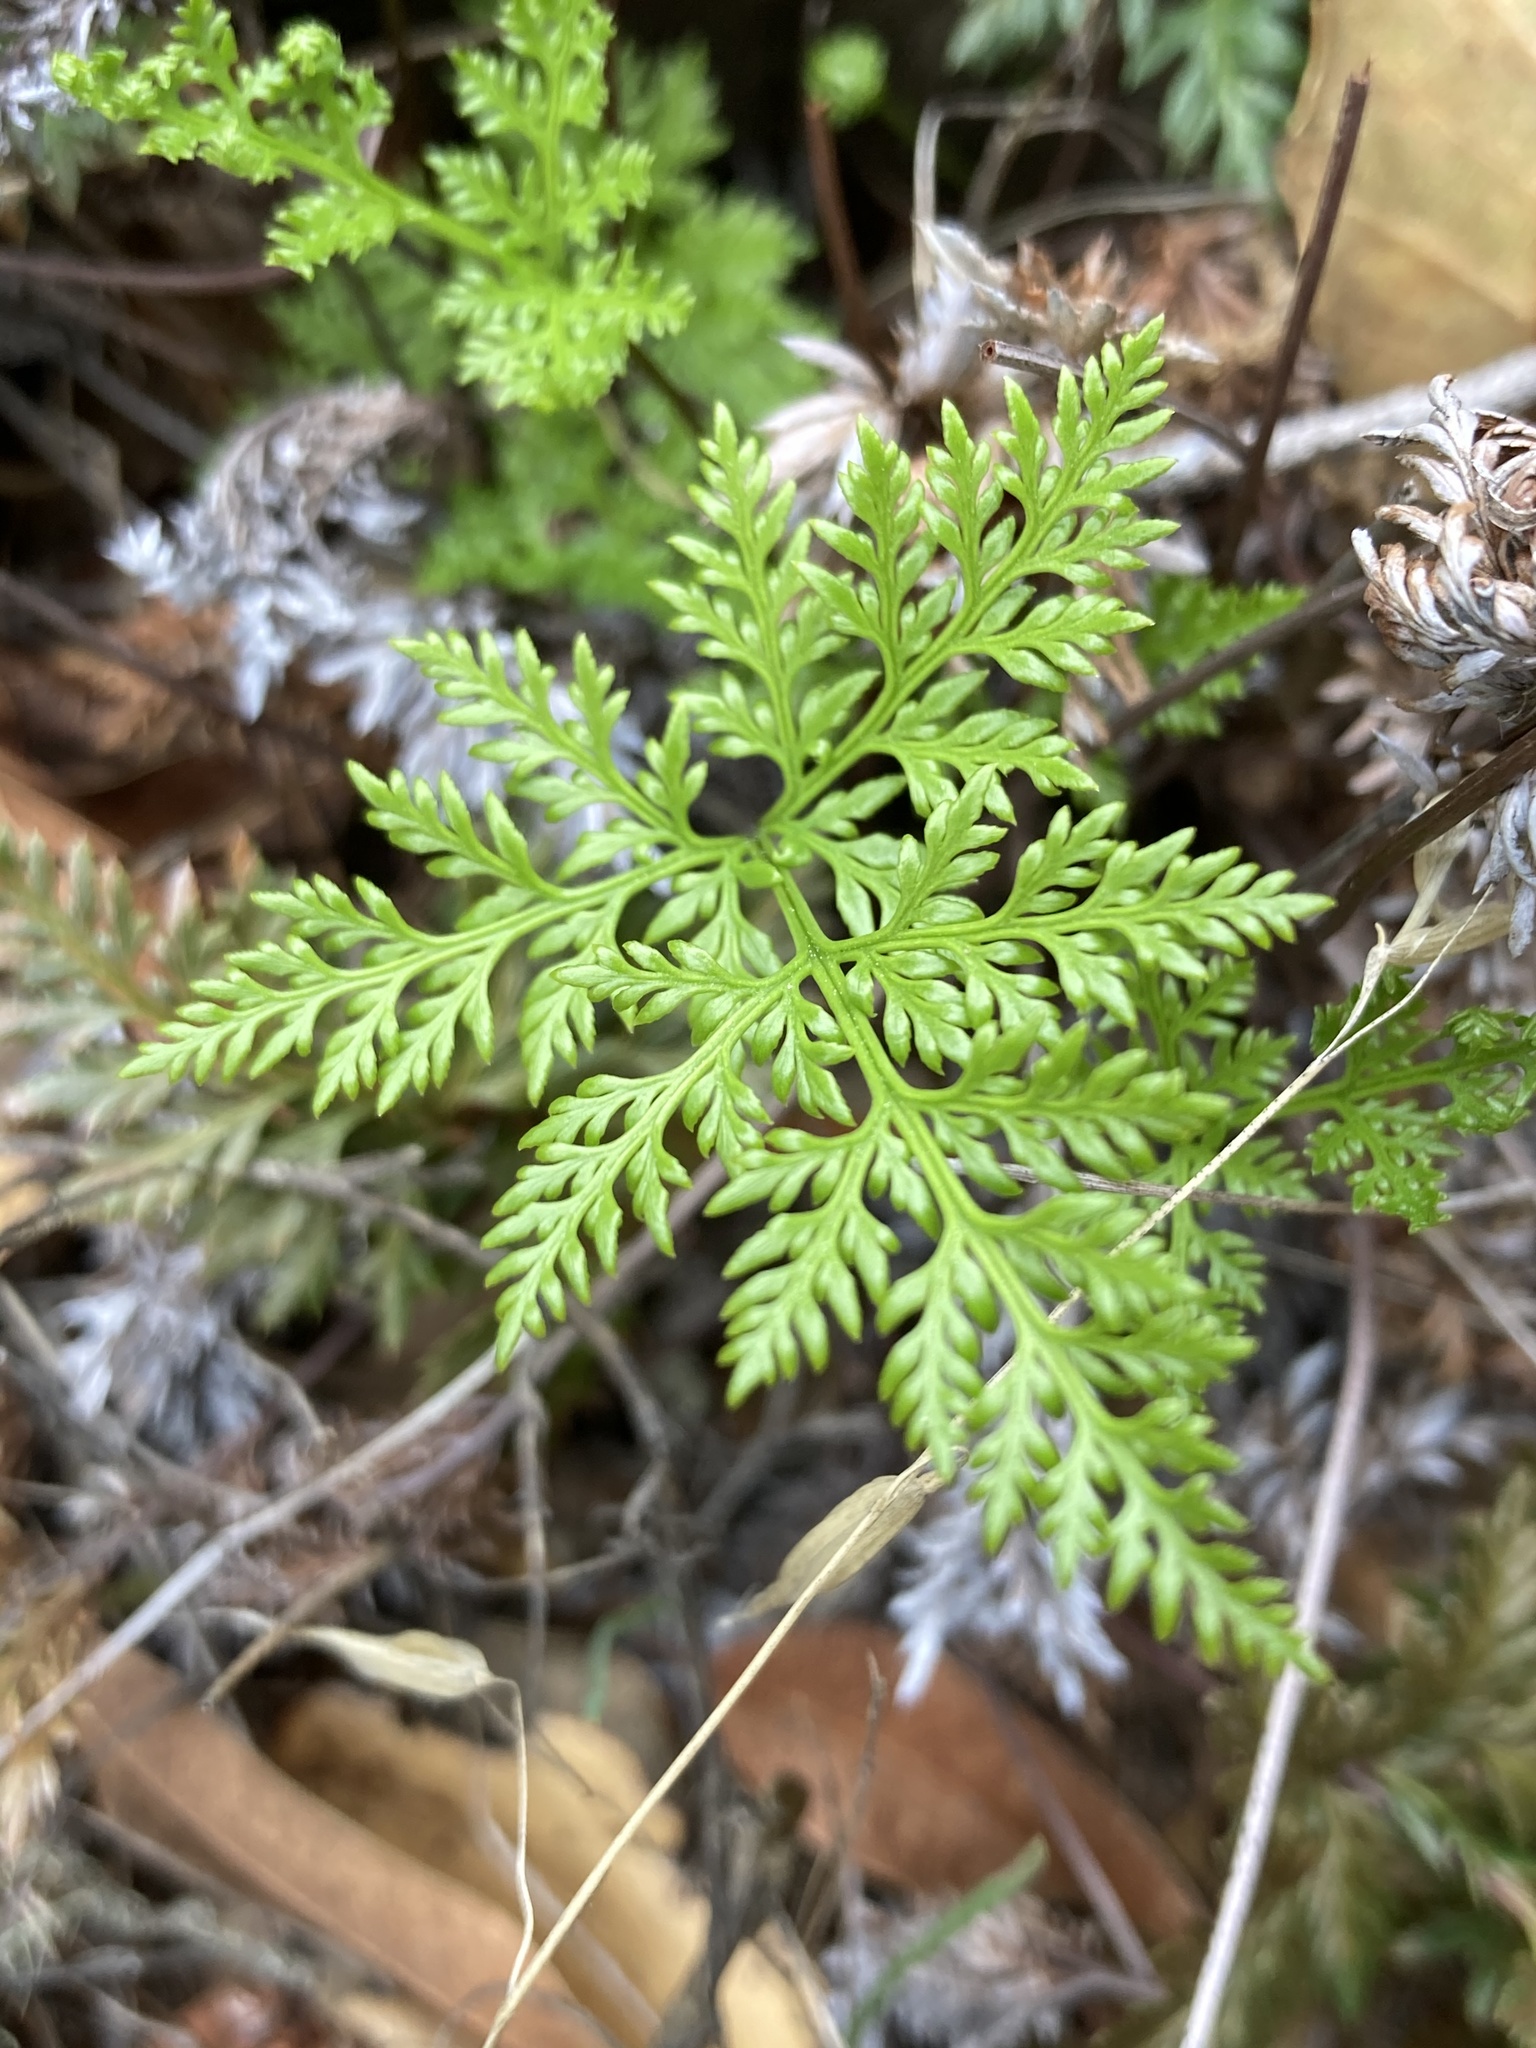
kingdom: Plantae
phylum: Tracheophyta
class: Polypodiopsida
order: Polypodiales
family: Pteridaceae
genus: Aspidotis
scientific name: Aspidotis carlotta-halliae
